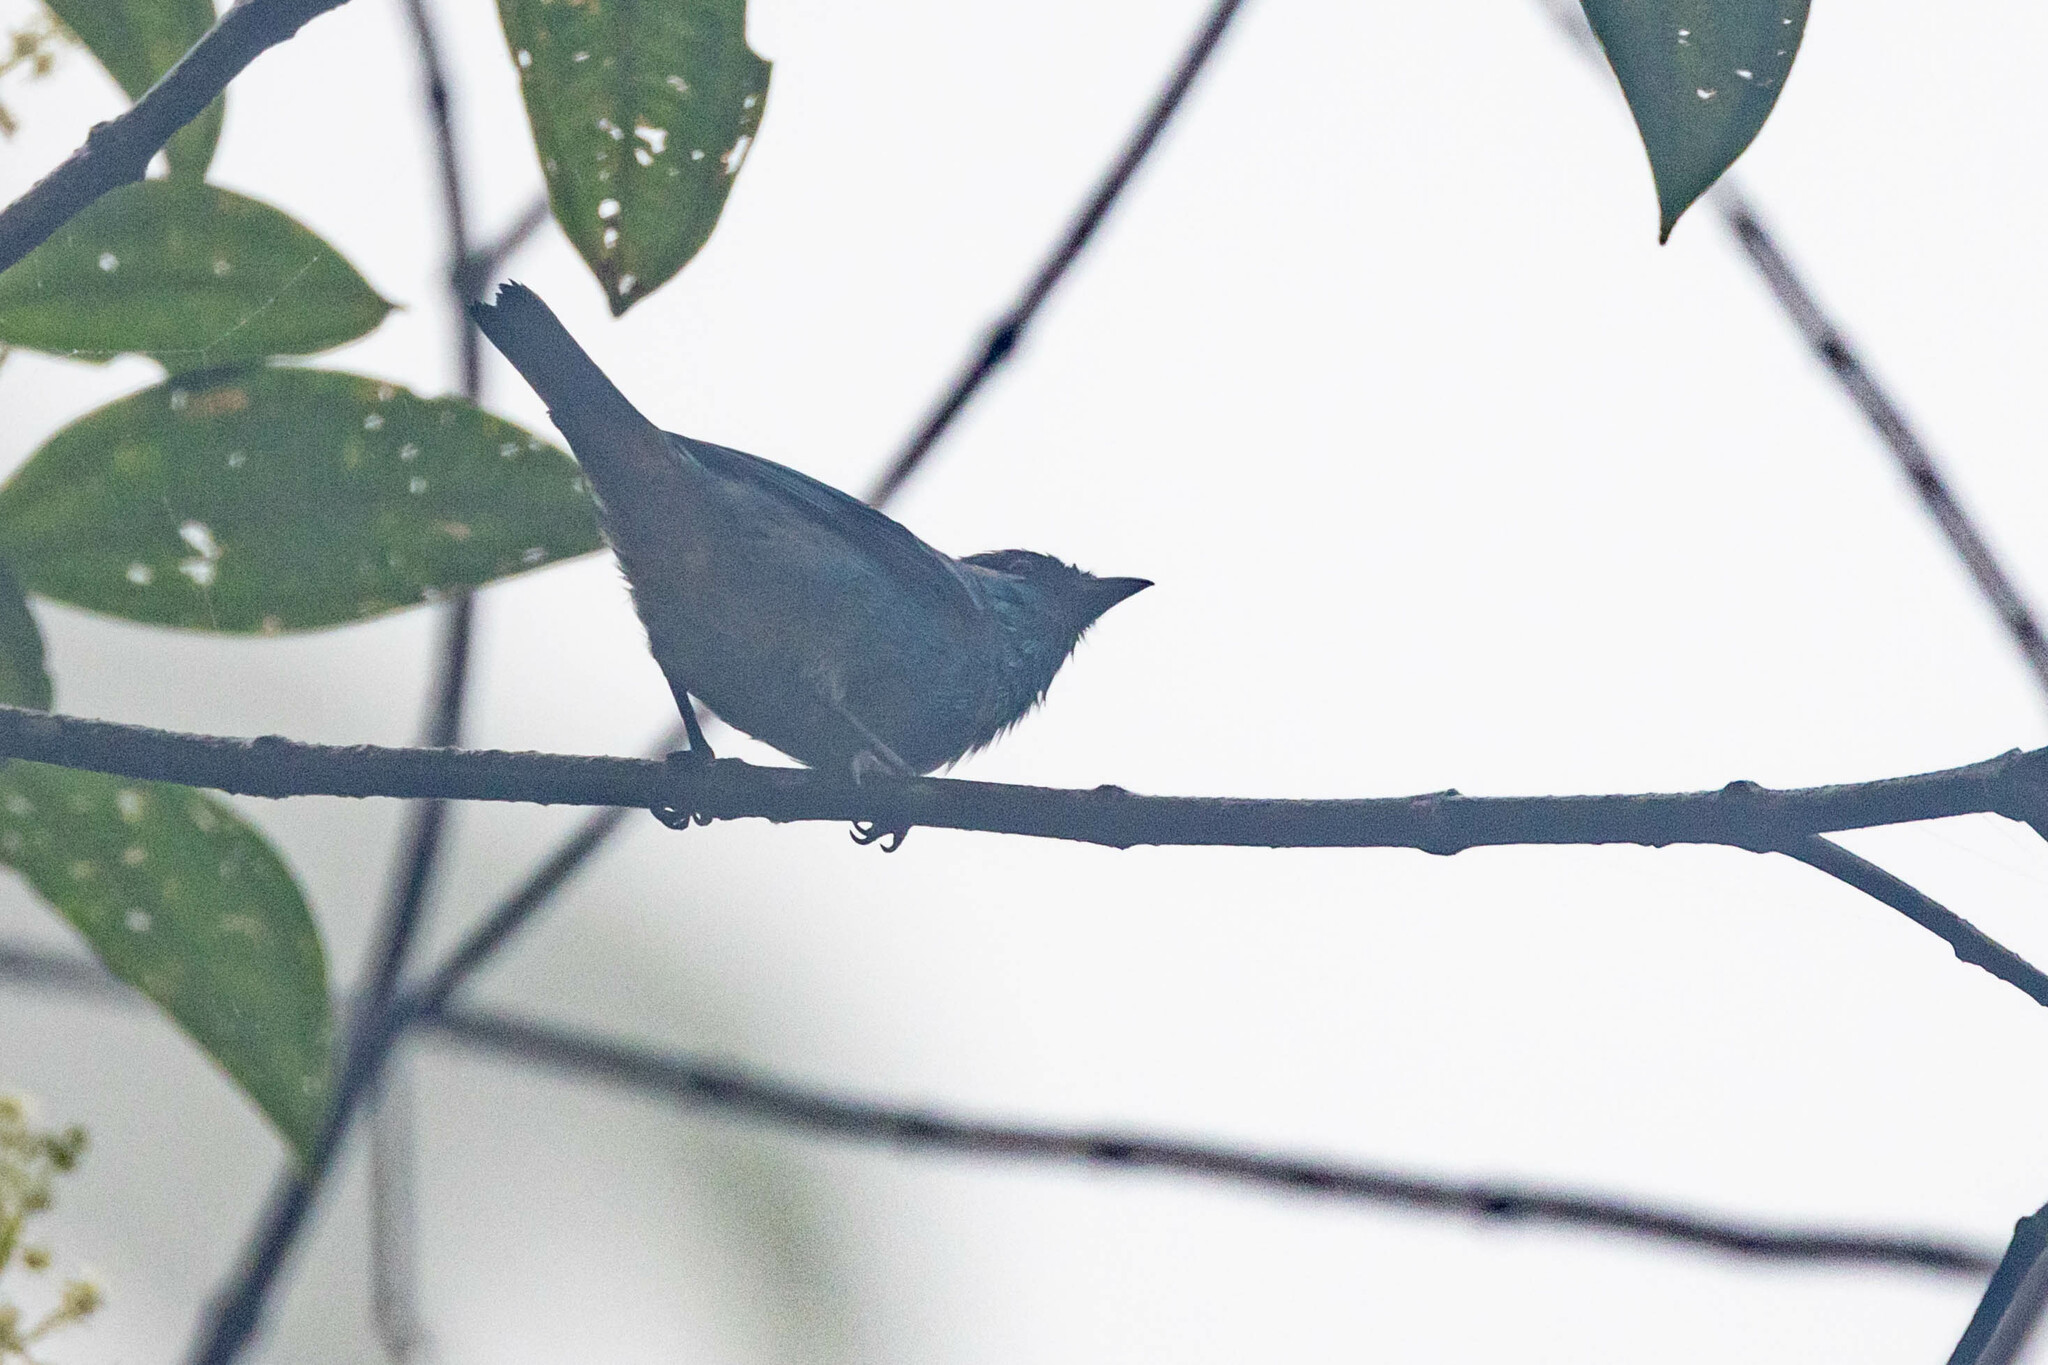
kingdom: Animalia
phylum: Chordata
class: Aves
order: Passeriformes
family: Thraupidae
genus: Chalcothraupis
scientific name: Chalcothraupis ruficervix
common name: Golden-naped tanager
